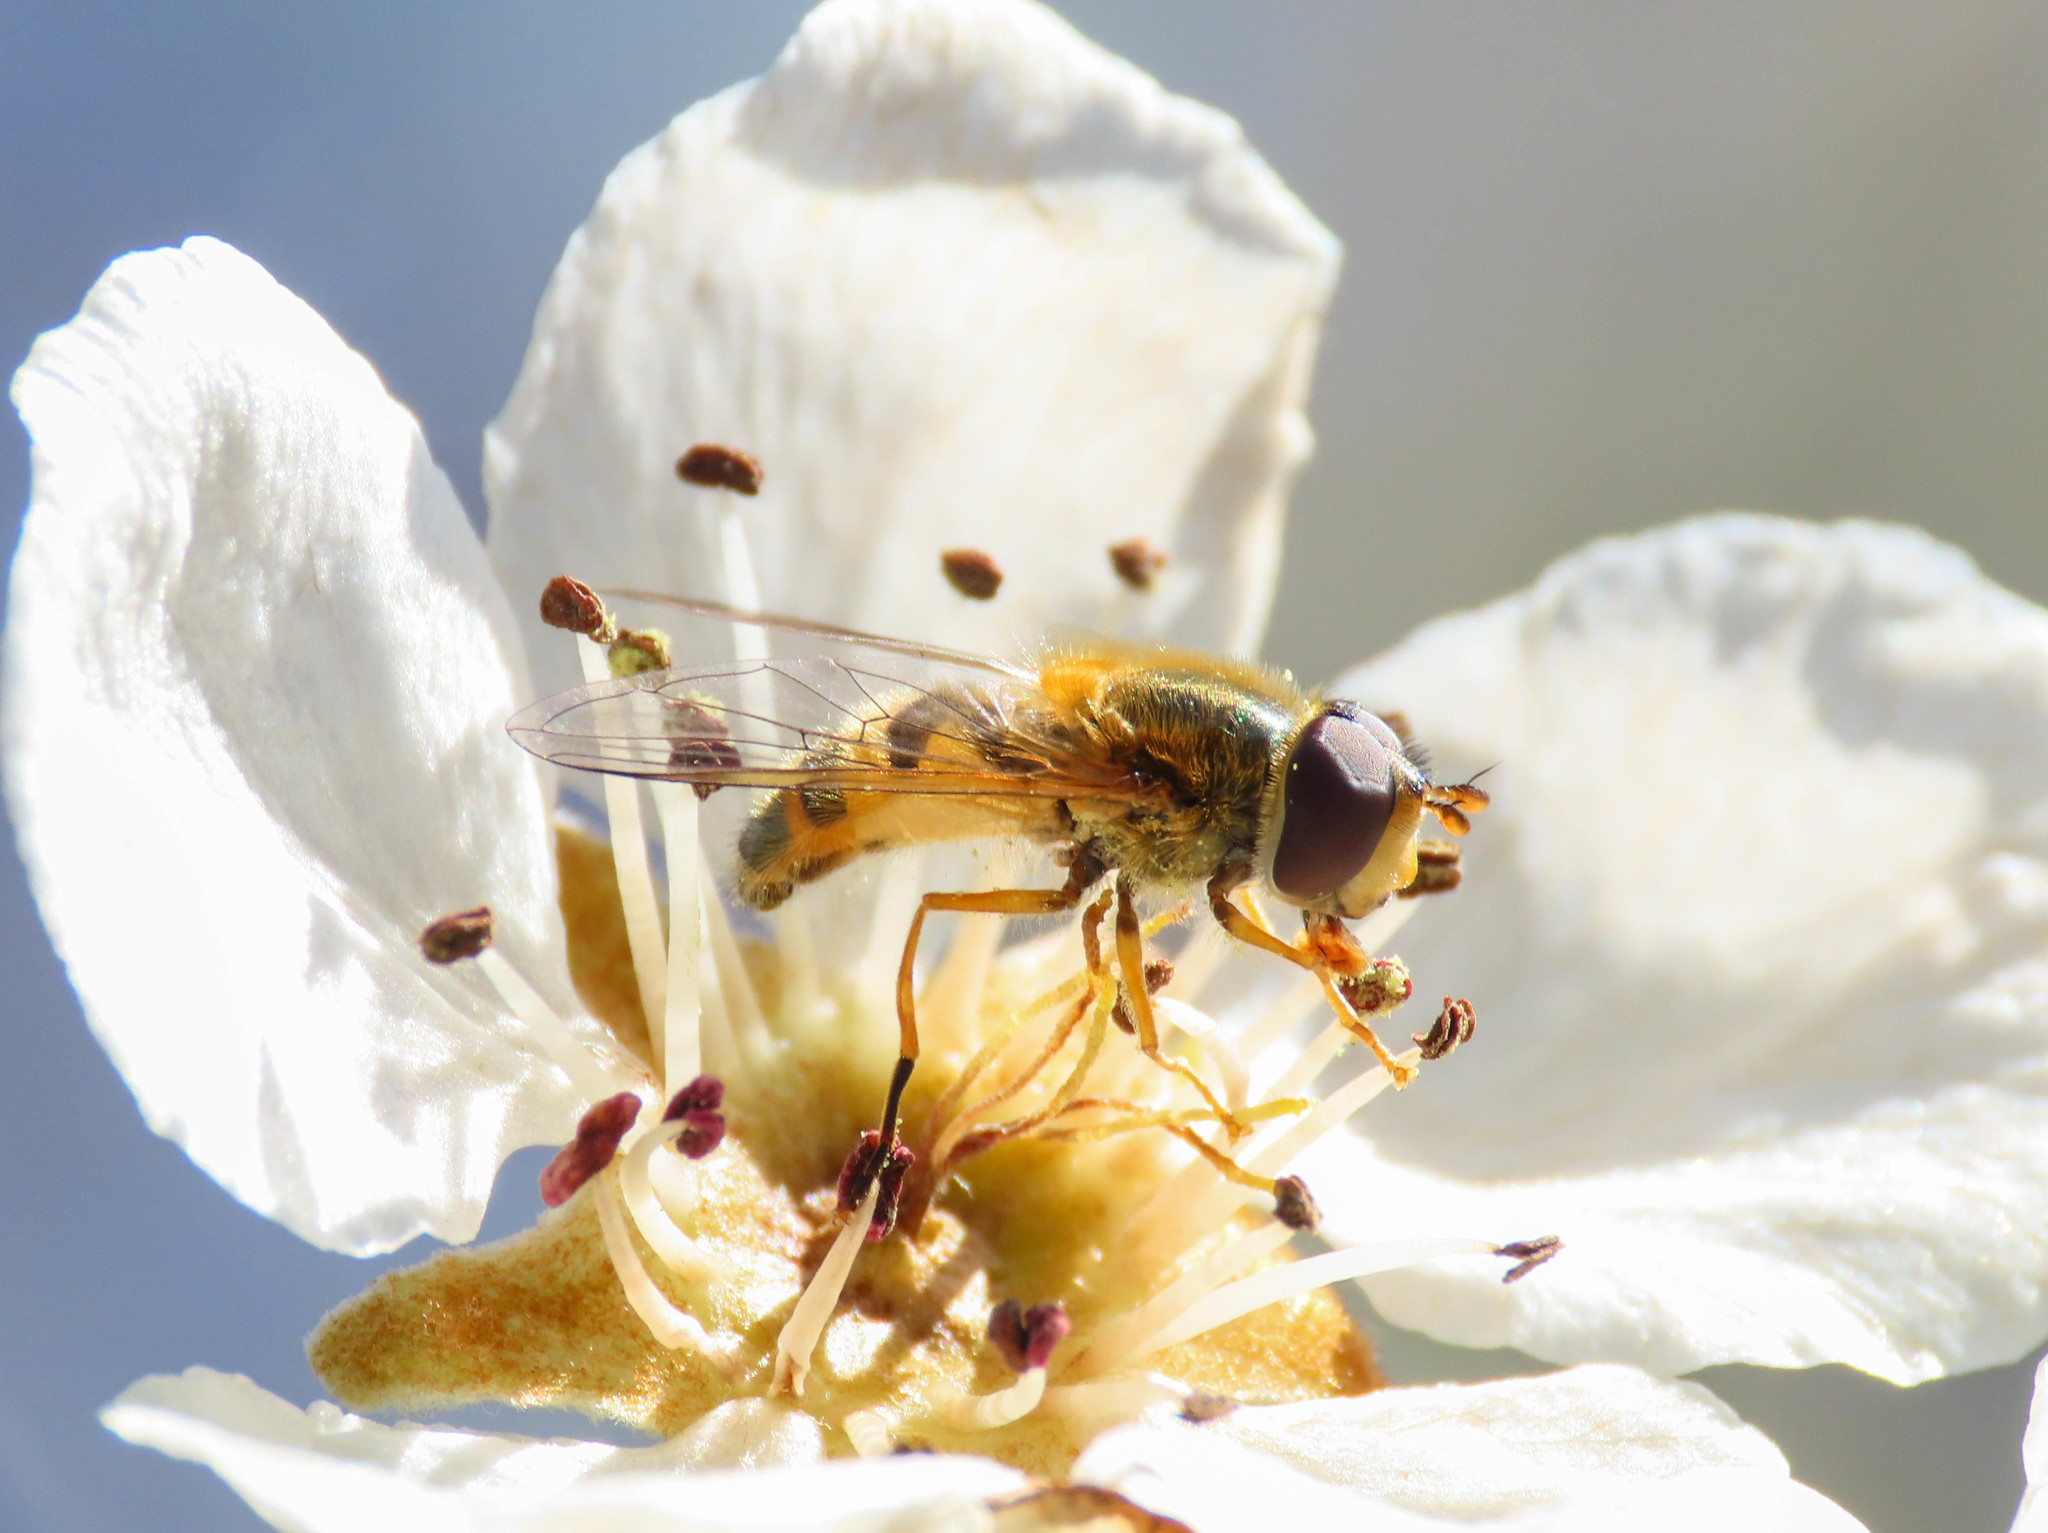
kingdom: Animalia
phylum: Arthropoda
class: Insecta
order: Diptera
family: Syrphidae
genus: Epistrophe
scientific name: Epistrophe eligans
